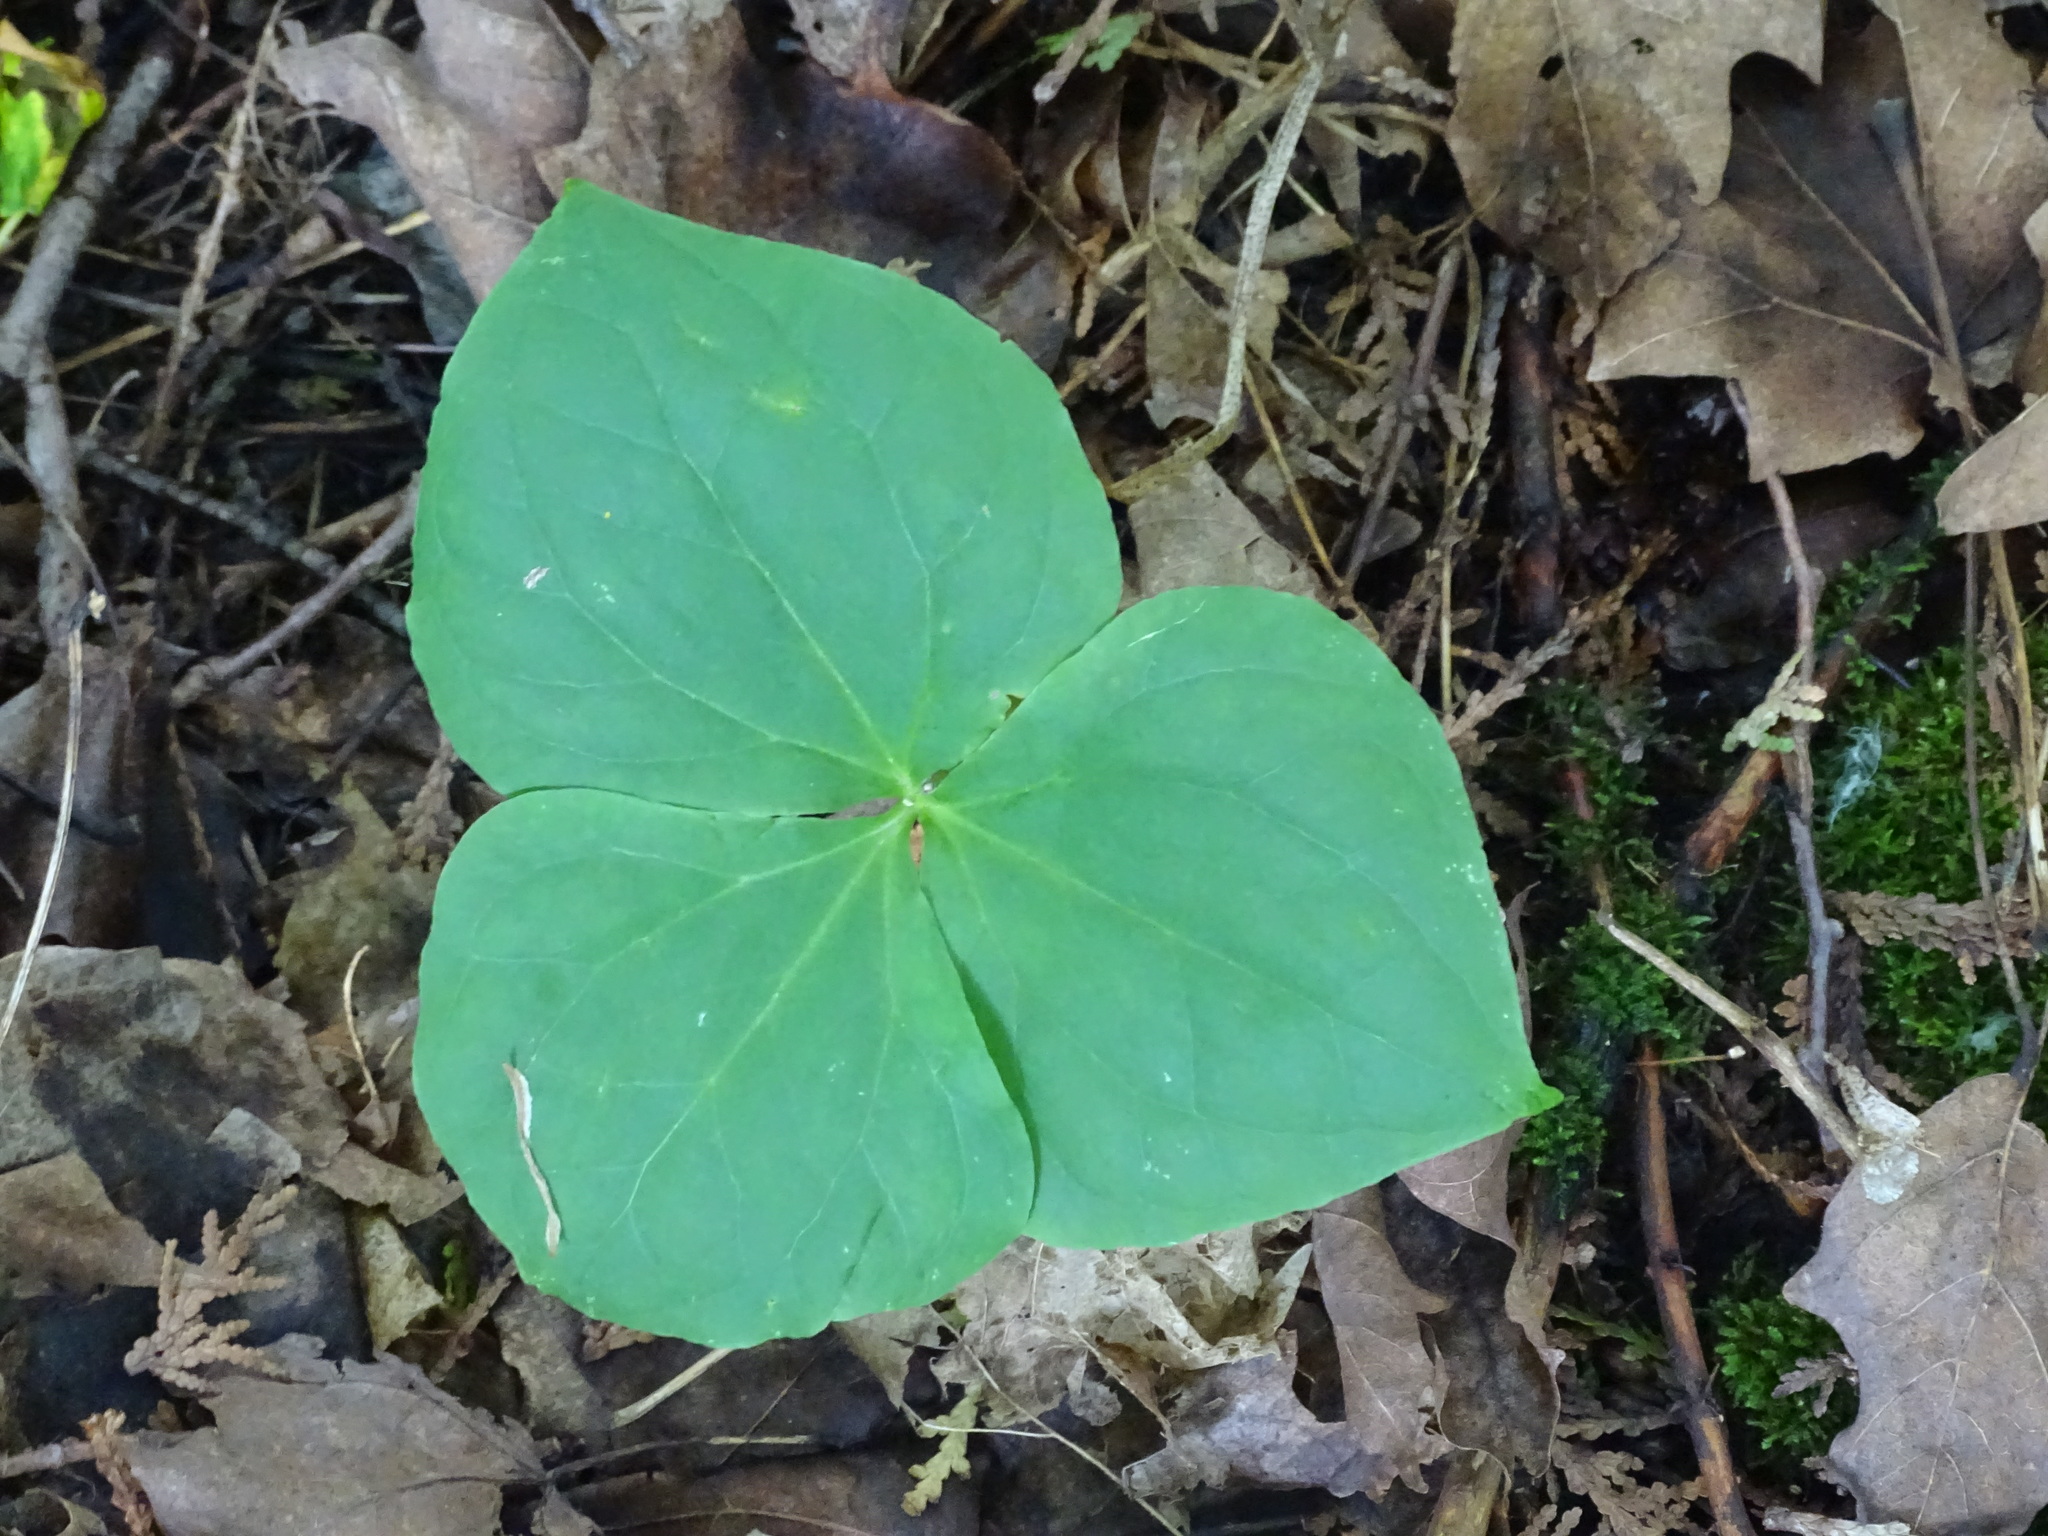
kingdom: Plantae
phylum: Tracheophyta
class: Liliopsida
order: Liliales
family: Melanthiaceae
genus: Trillium
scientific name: Trillium erectum
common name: Purple trillium
